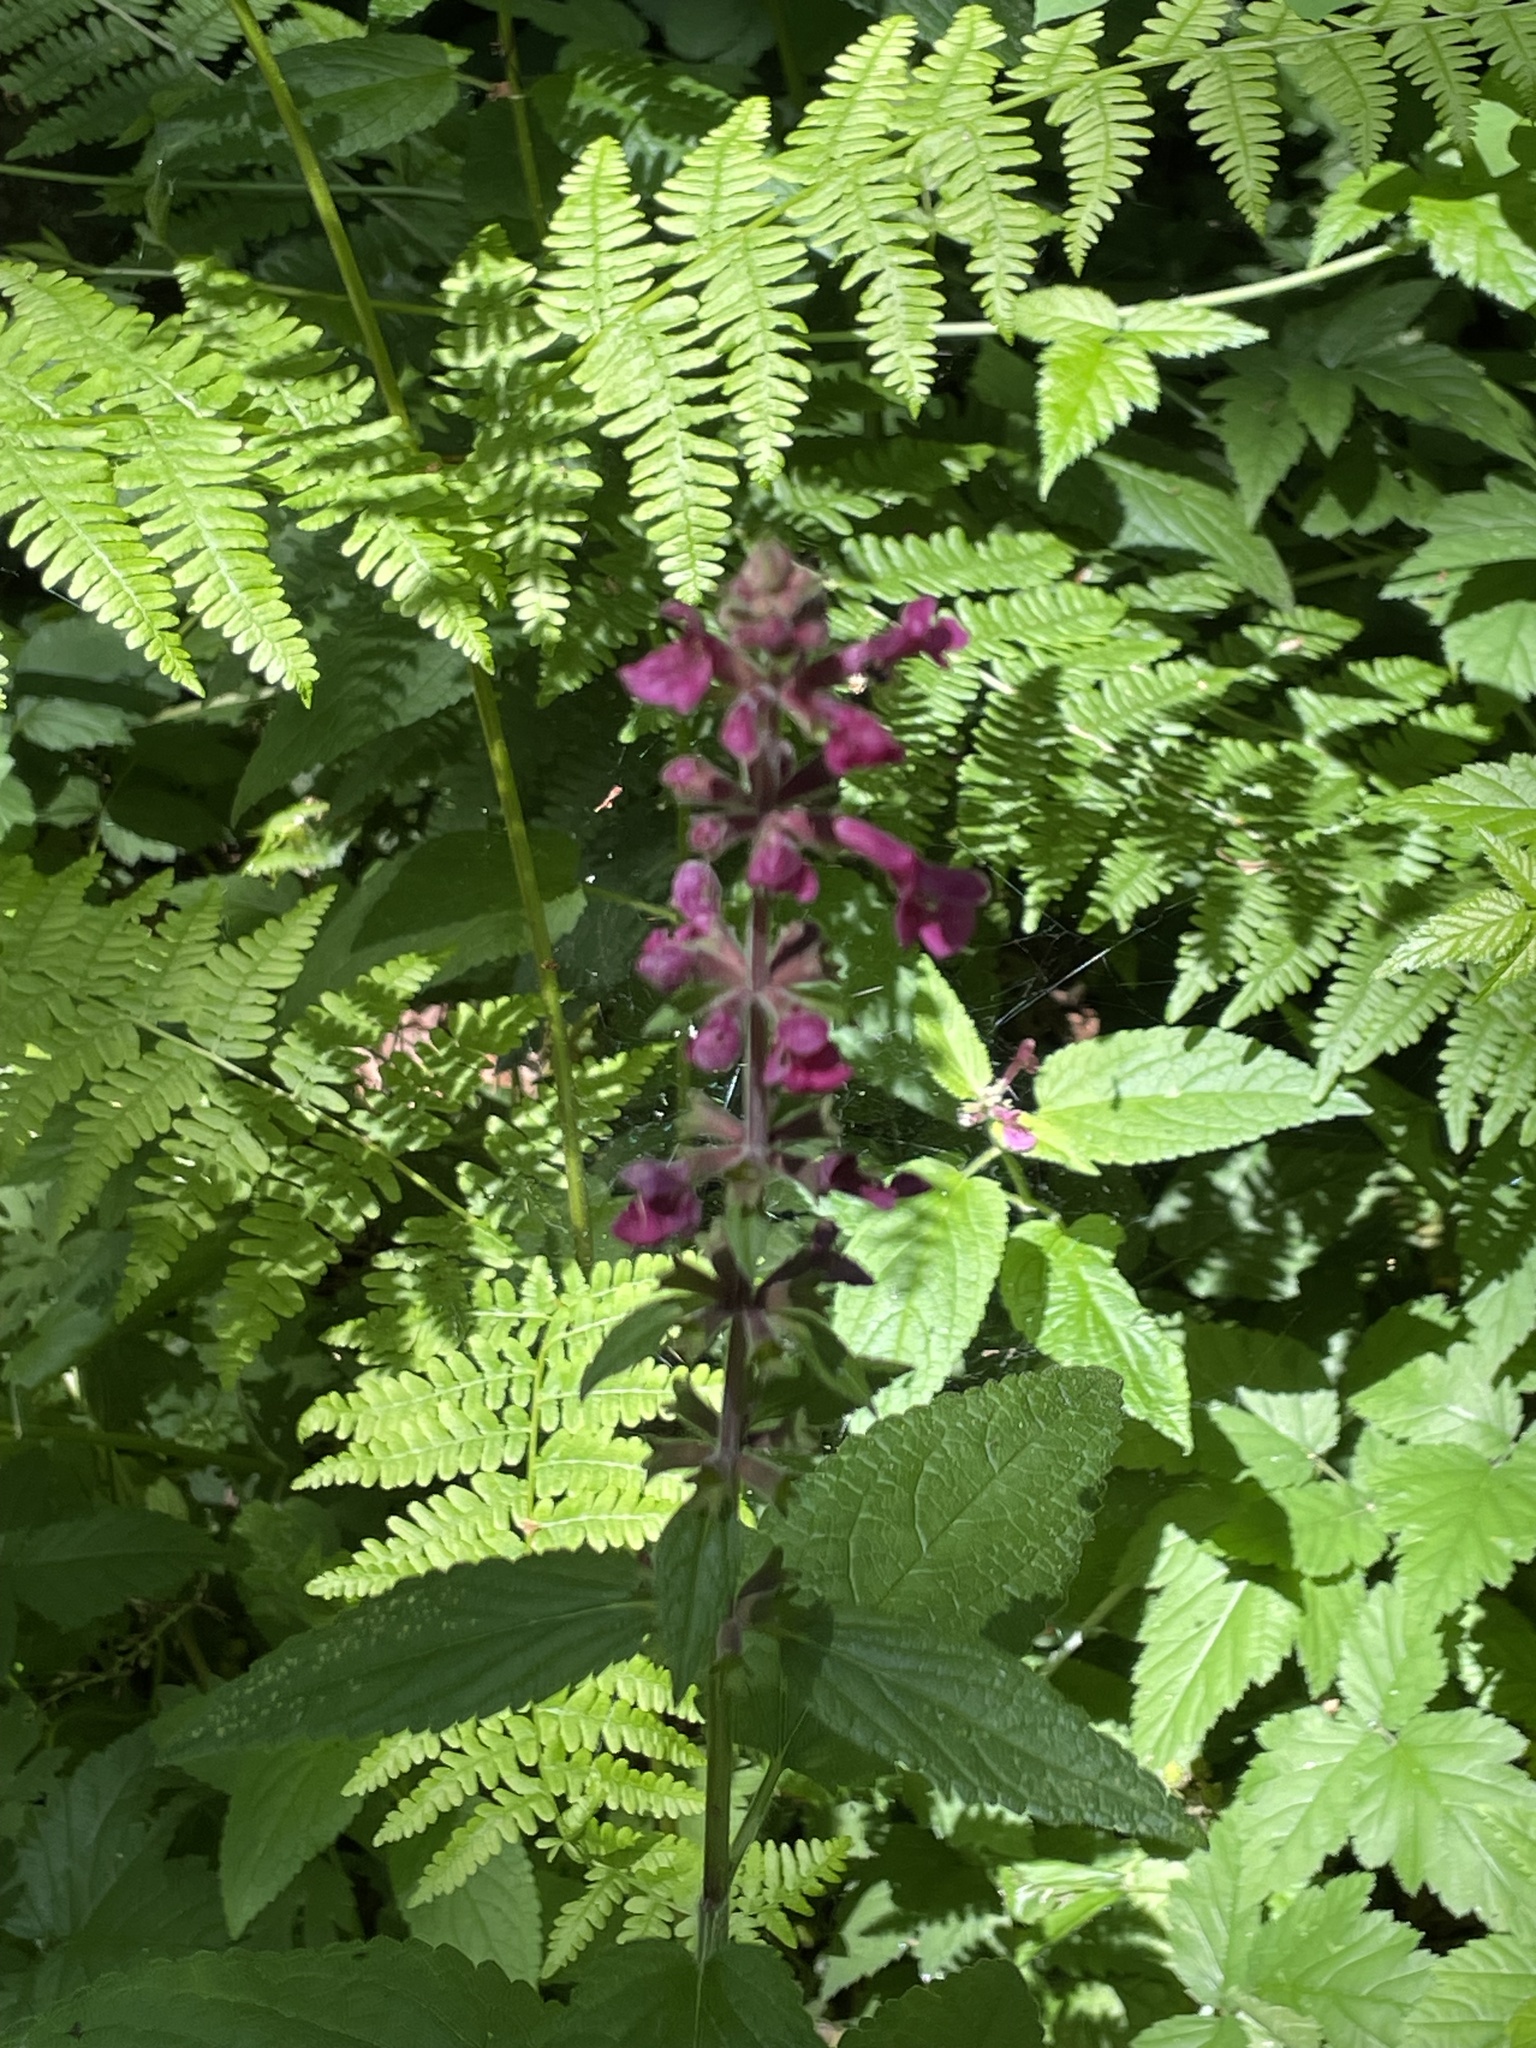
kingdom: Plantae
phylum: Tracheophyta
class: Magnoliopsida
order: Lamiales
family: Lamiaceae
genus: Stachys
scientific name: Stachys chamissonis
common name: Coastal hedge-nettle
